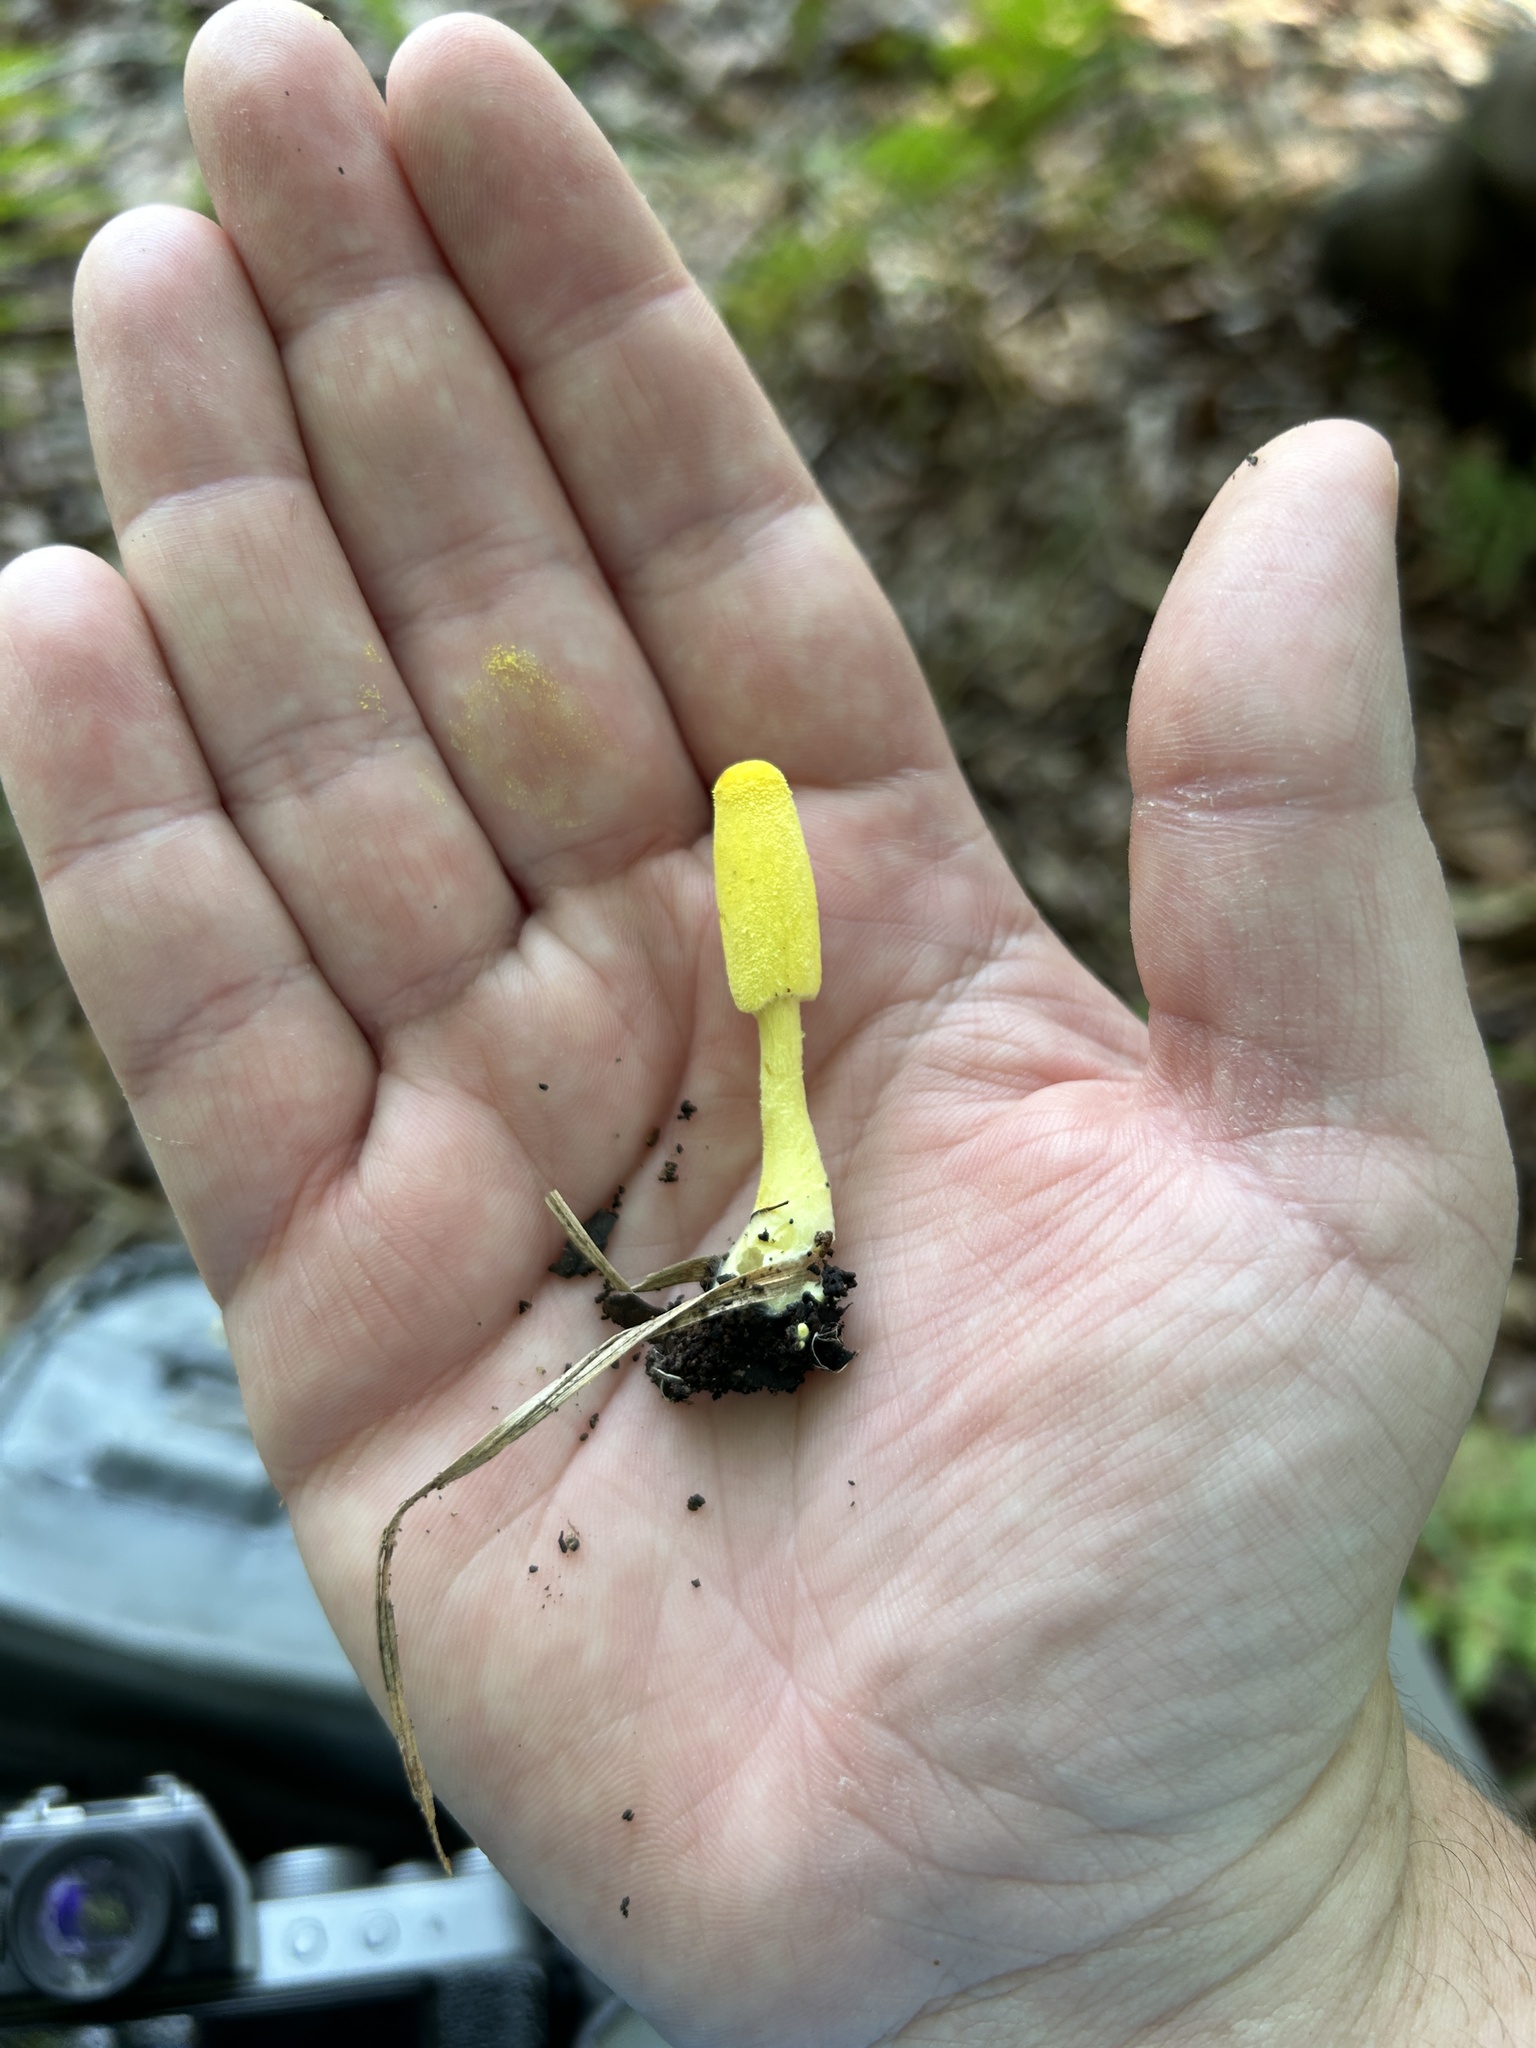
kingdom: Fungi
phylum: Basidiomycota
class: Agaricomycetes
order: Agaricales
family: Agaricaceae
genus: Leucocoprinus
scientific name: Leucocoprinus birnbaumii
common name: Plantpot dapperling
